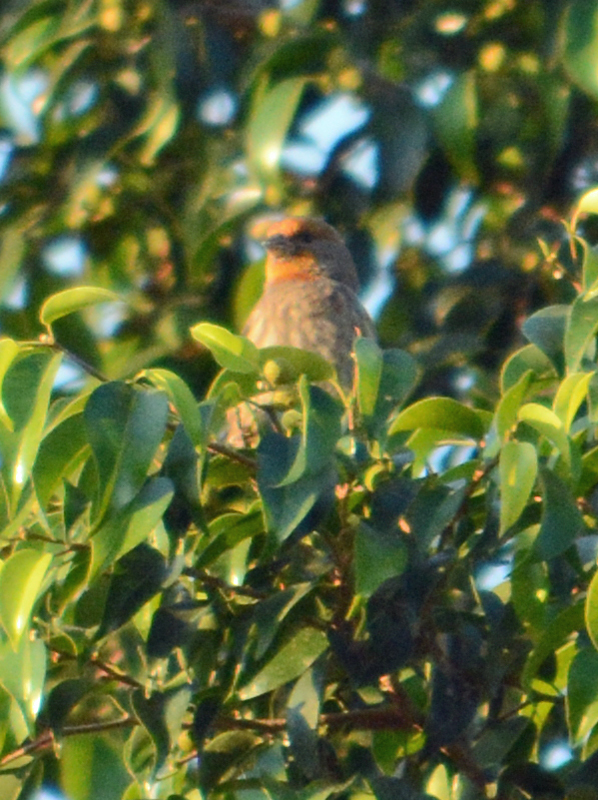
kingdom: Animalia
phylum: Chordata
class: Aves
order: Passeriformes
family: Fringillidae
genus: Haemorhous
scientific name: Haemorhous mexicanus
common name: House finch
